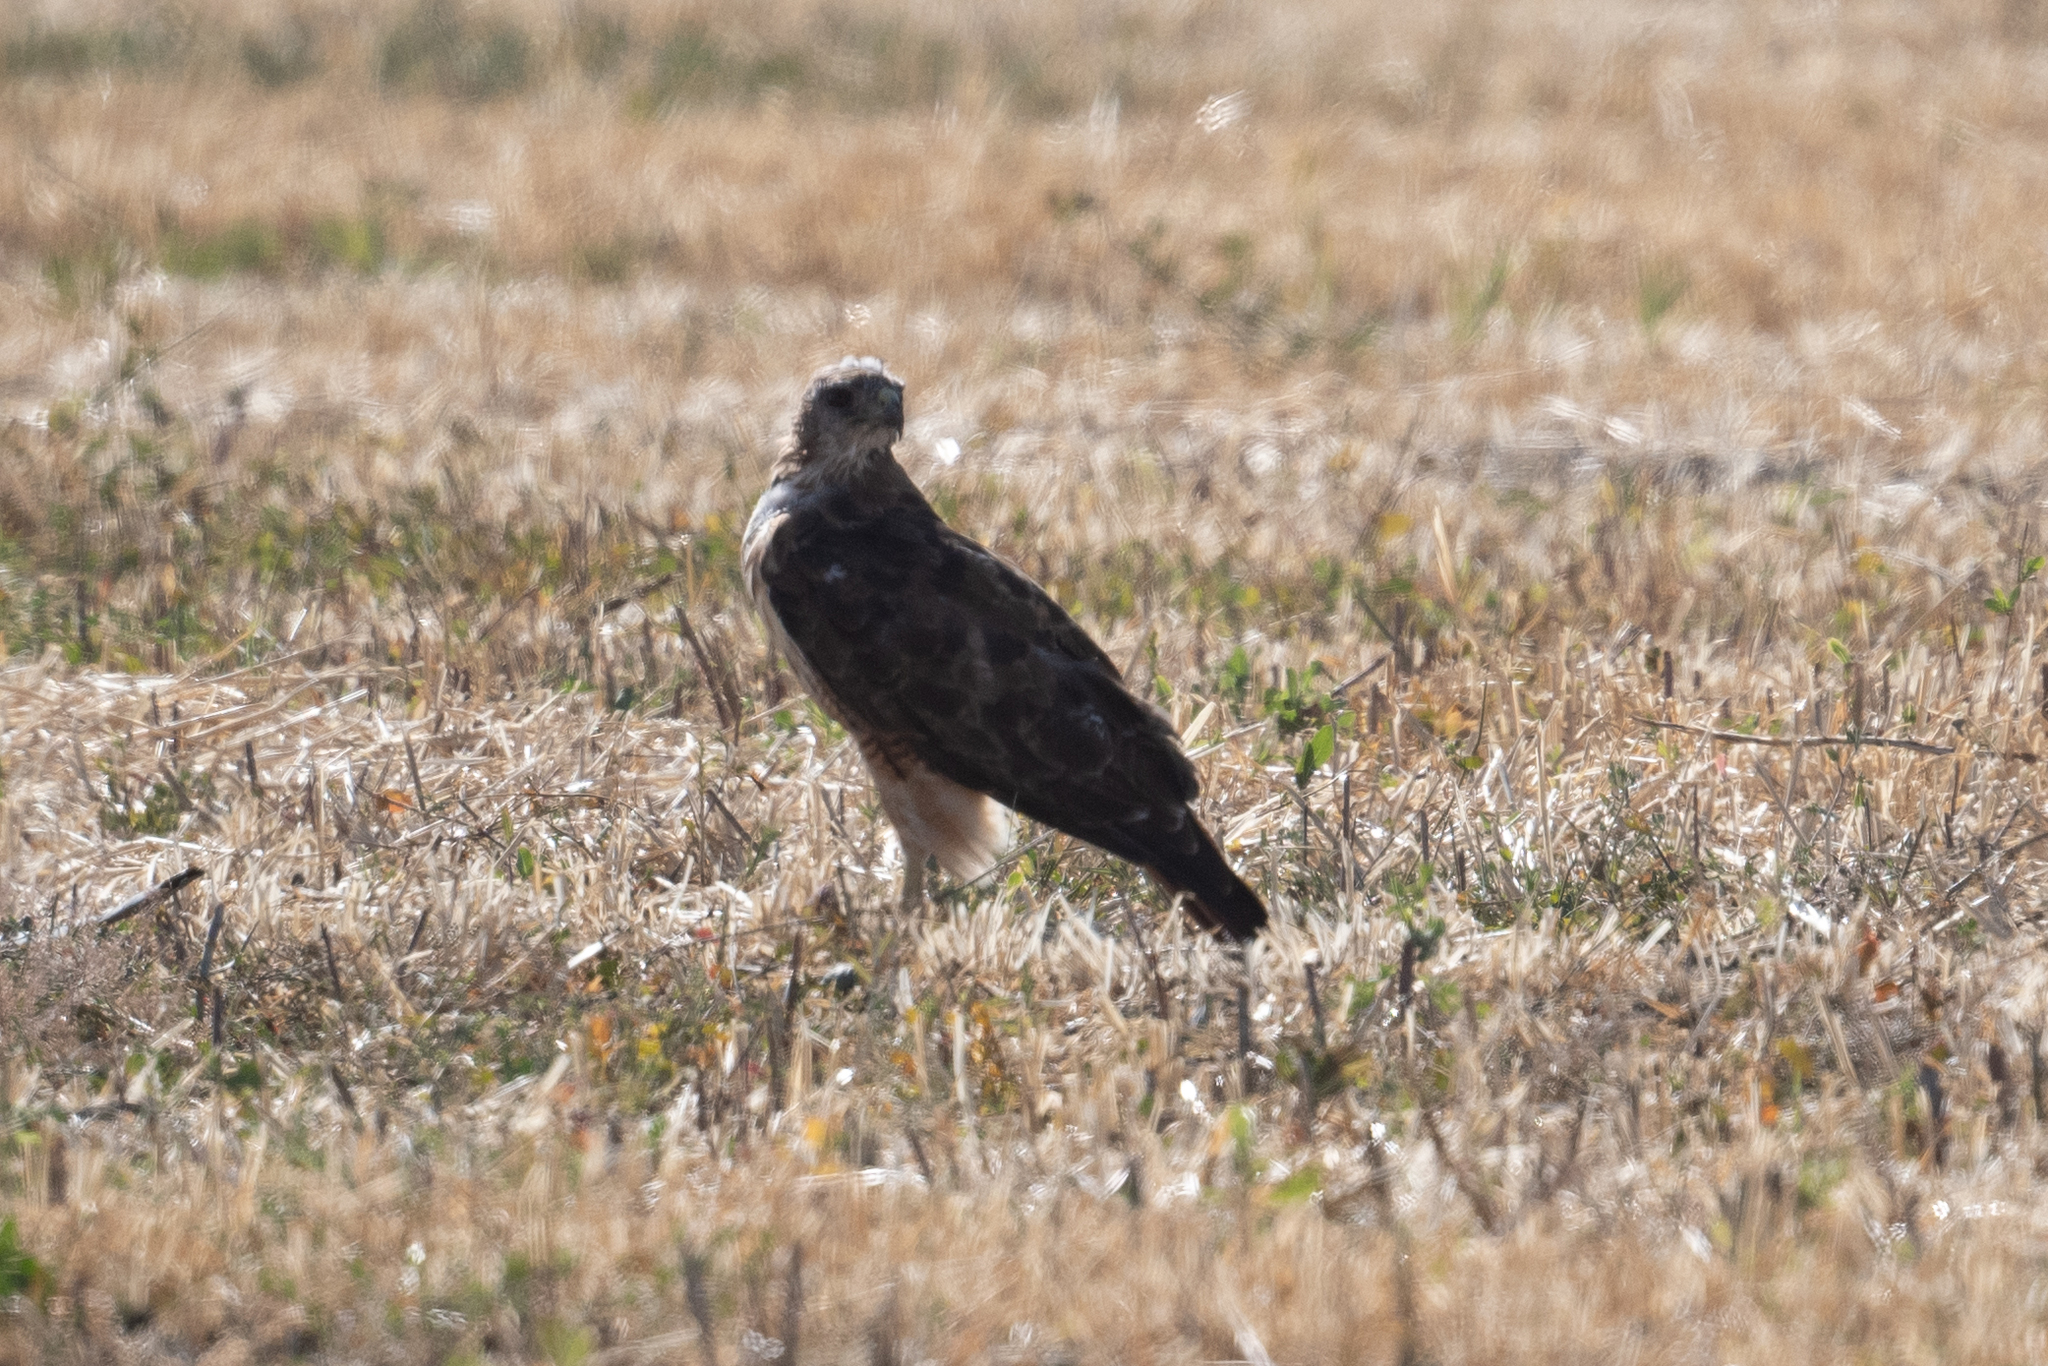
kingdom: Animalia
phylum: Chordata
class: Aves
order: Accipitriformes
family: Accipitridae
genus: Buteo
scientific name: Buteo jamaicensis
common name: Red-tailed hawk
